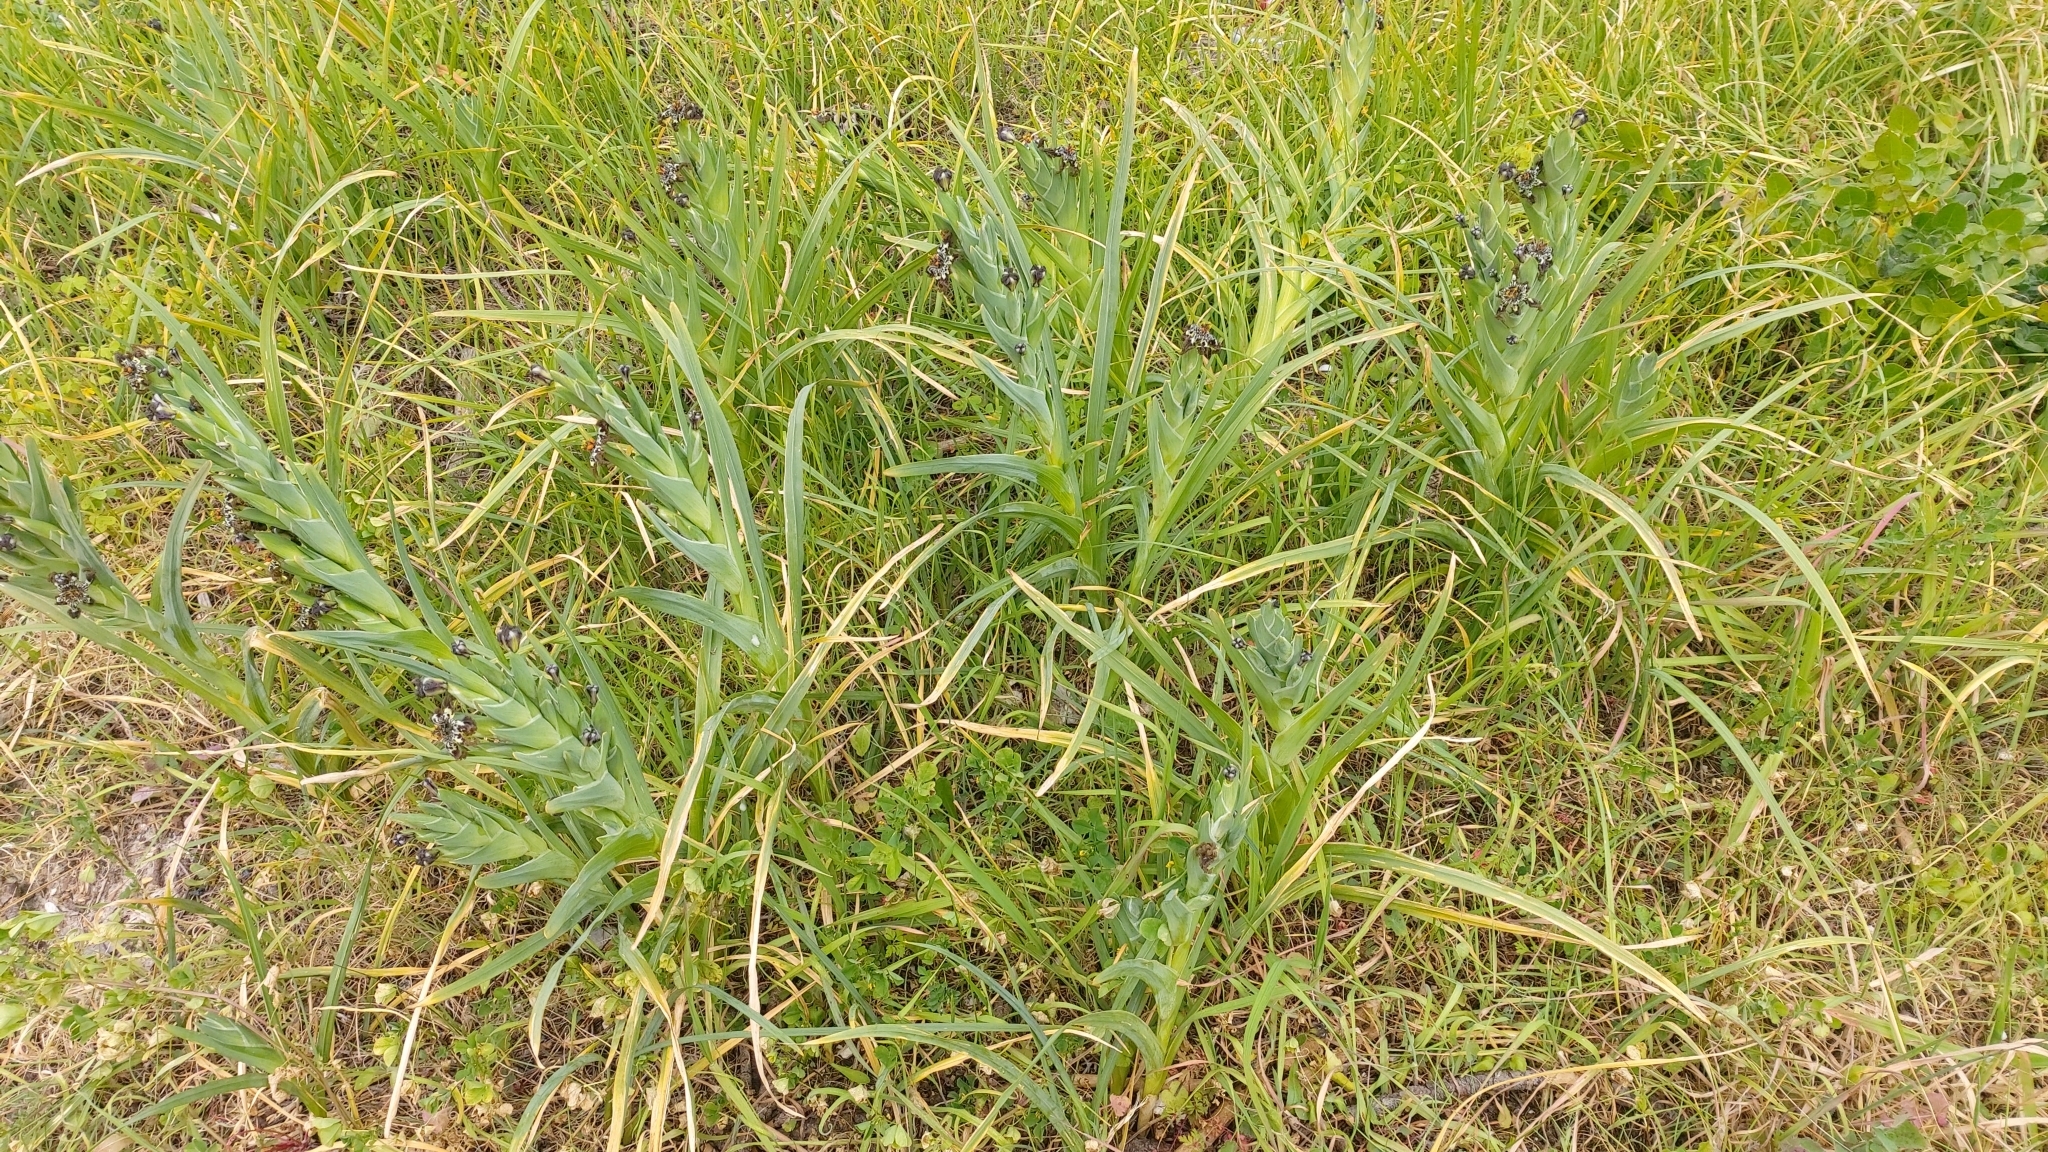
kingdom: Plantae
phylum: Tracheophyta
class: Liliopsida
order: Asparagales
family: Iridaceae
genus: Ferraria
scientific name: Ferraria crispa
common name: Black-flag
